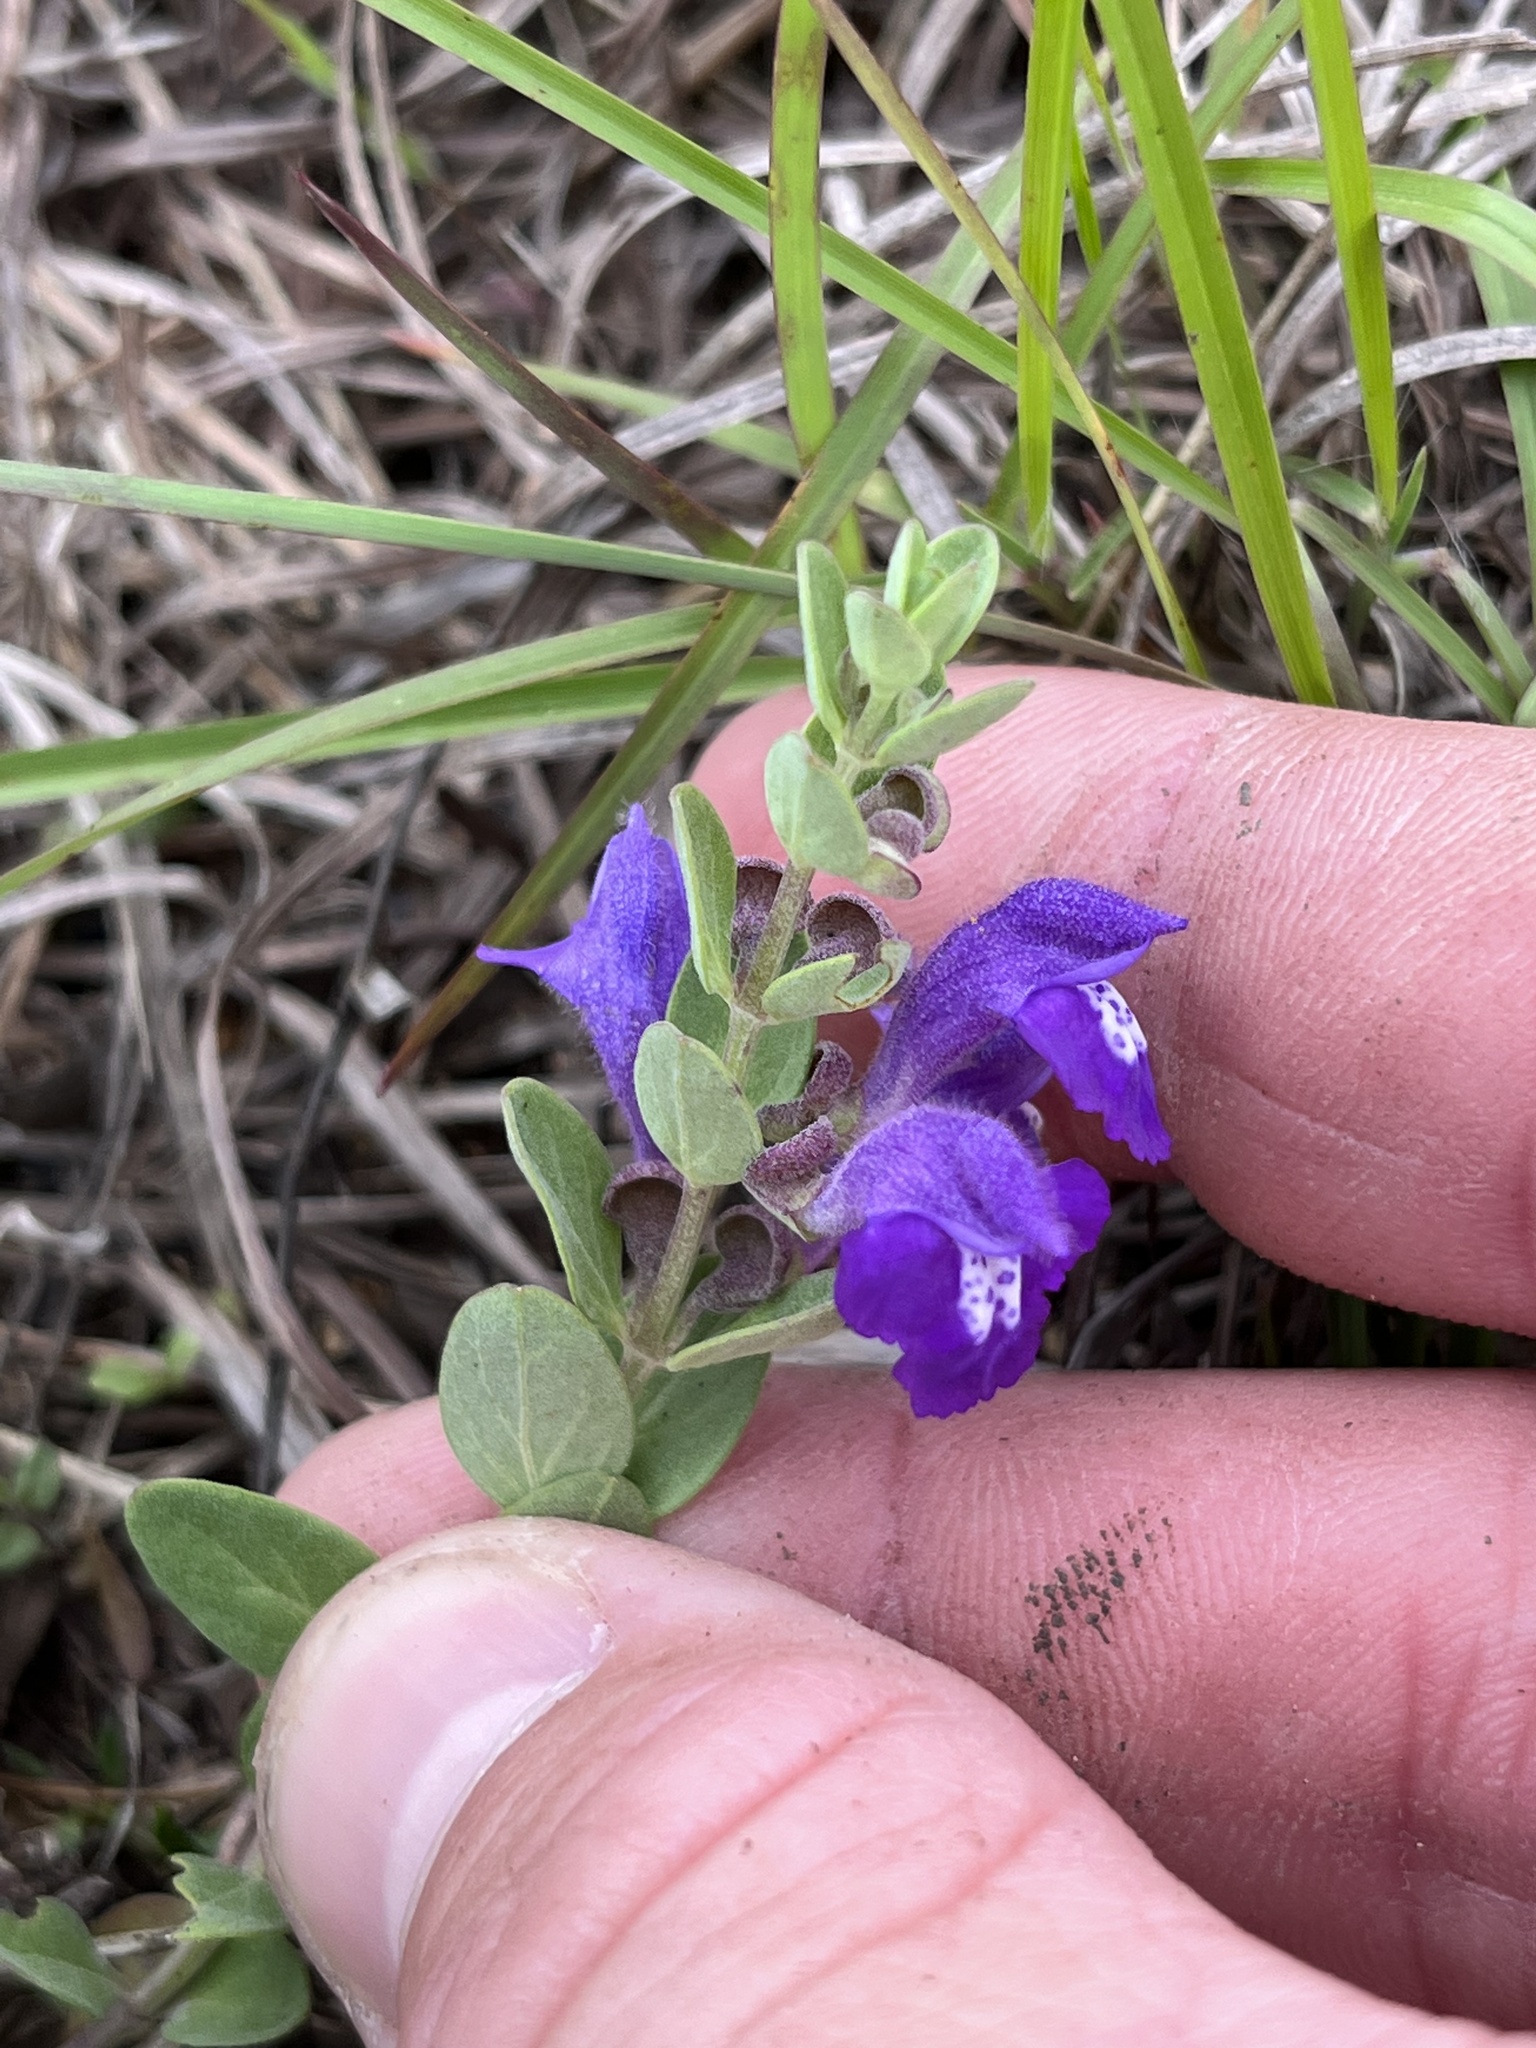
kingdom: Plantae
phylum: Tracheophyta
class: Magnoliopsida
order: Lamiales
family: Lamiaceae
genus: Scutellaria
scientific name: Scutellaria wrightii
